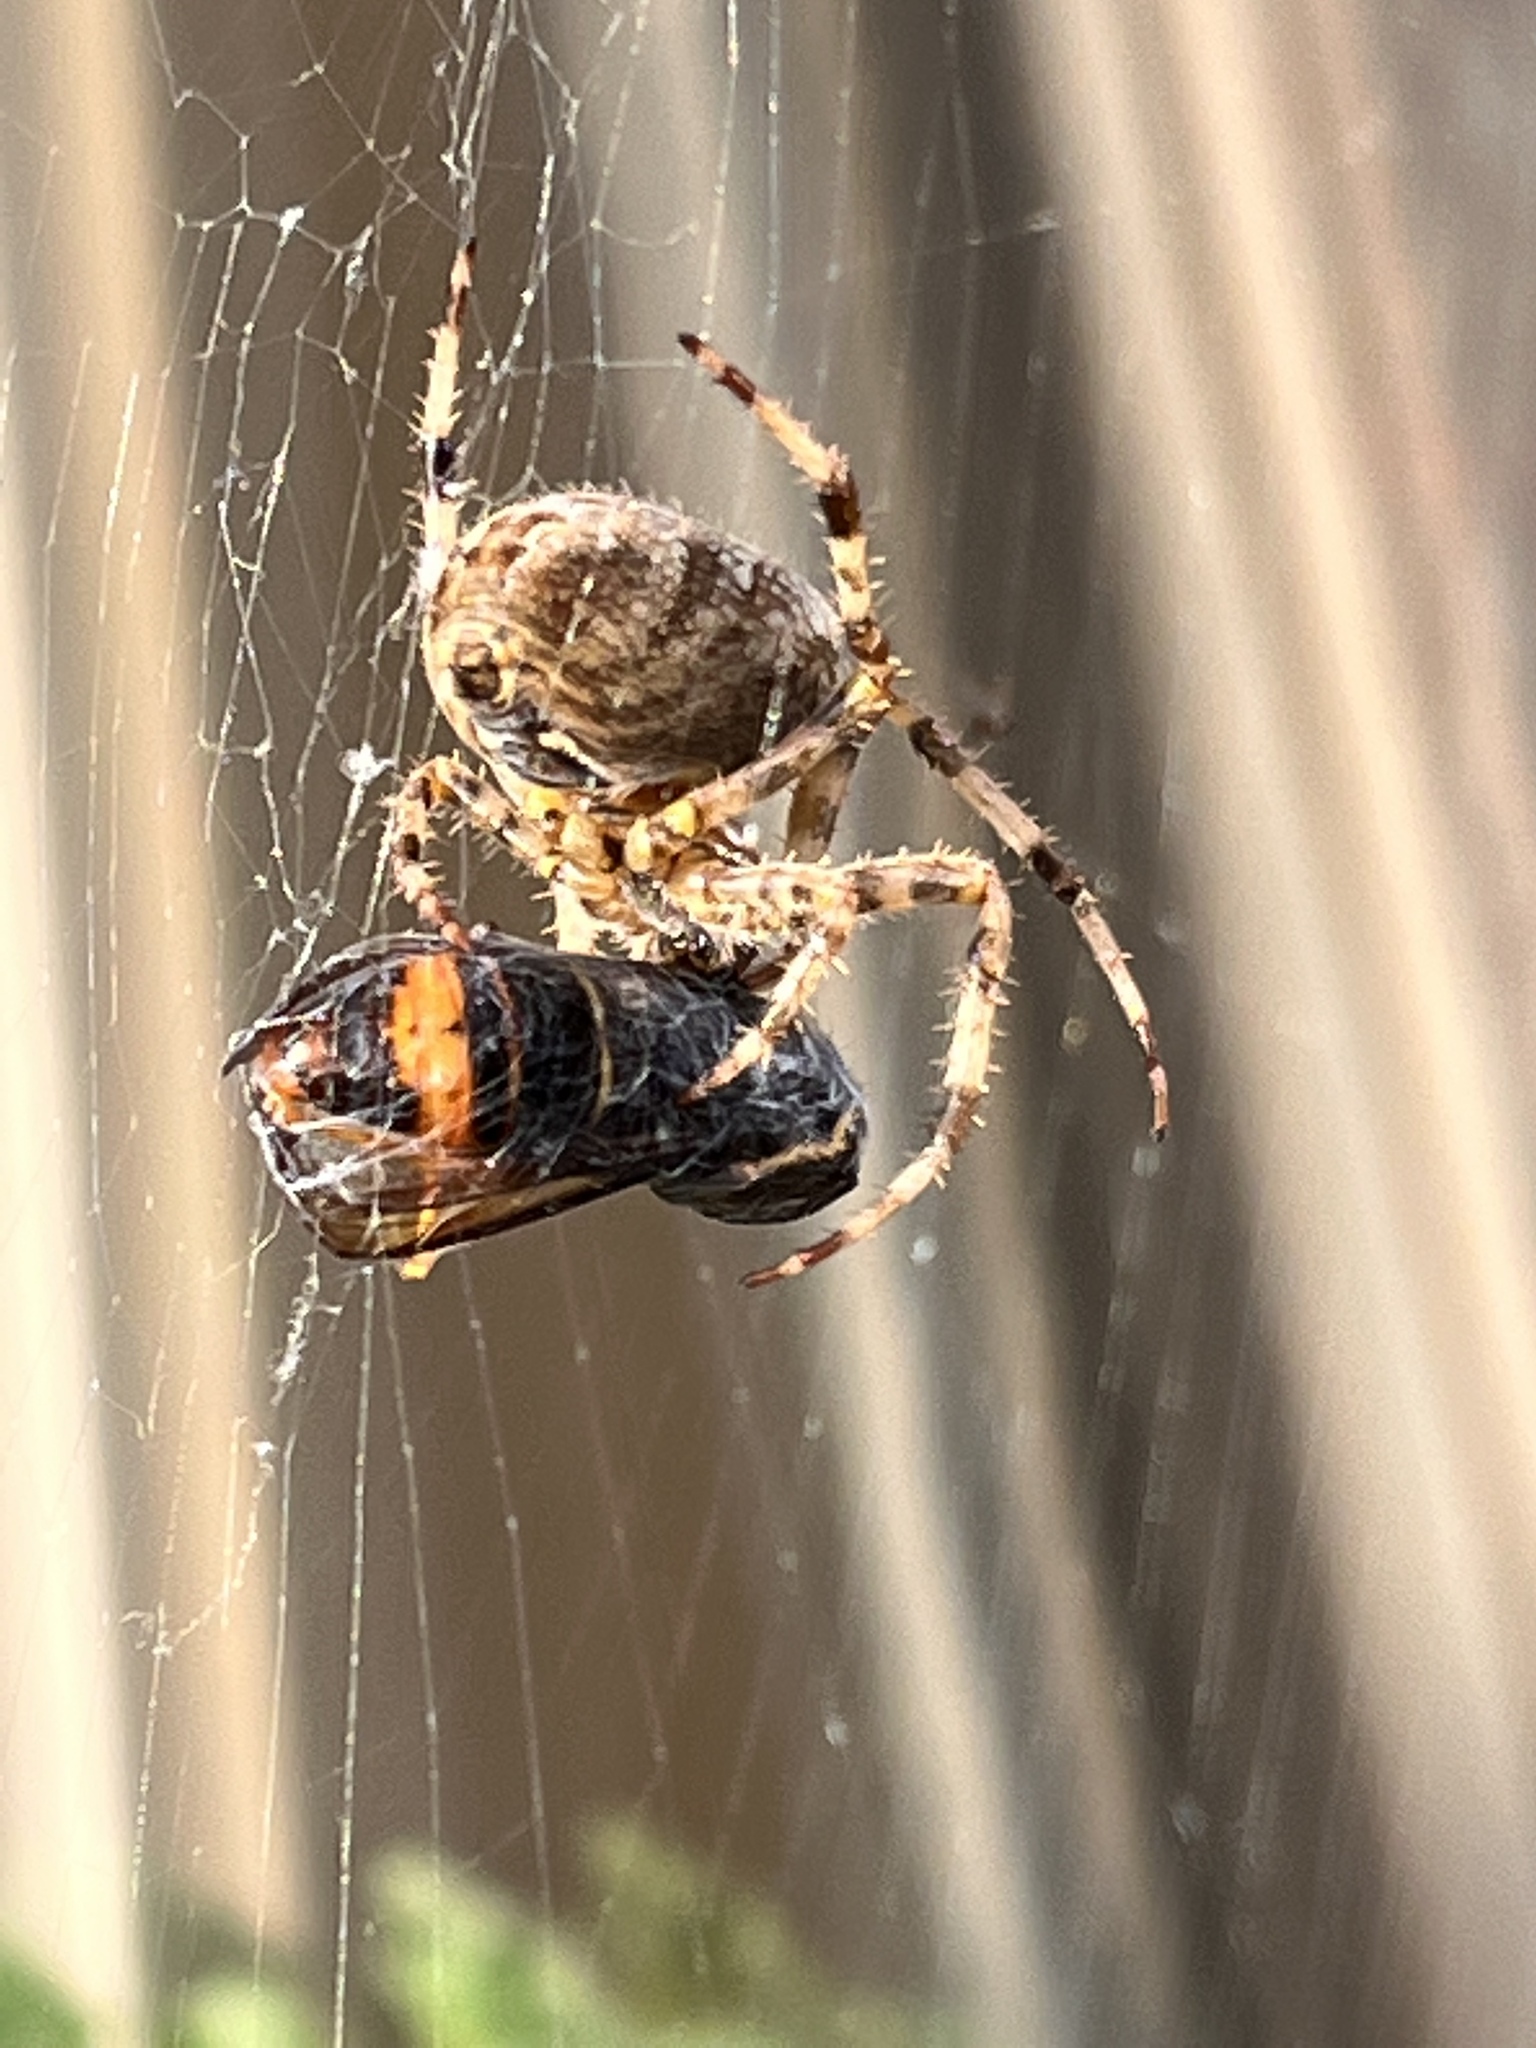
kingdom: Animalia
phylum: Arthropoda
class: Insecta
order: Hymenoptera
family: Vespidae
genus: Vespa
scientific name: Vespa velutina
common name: Asian hornet
